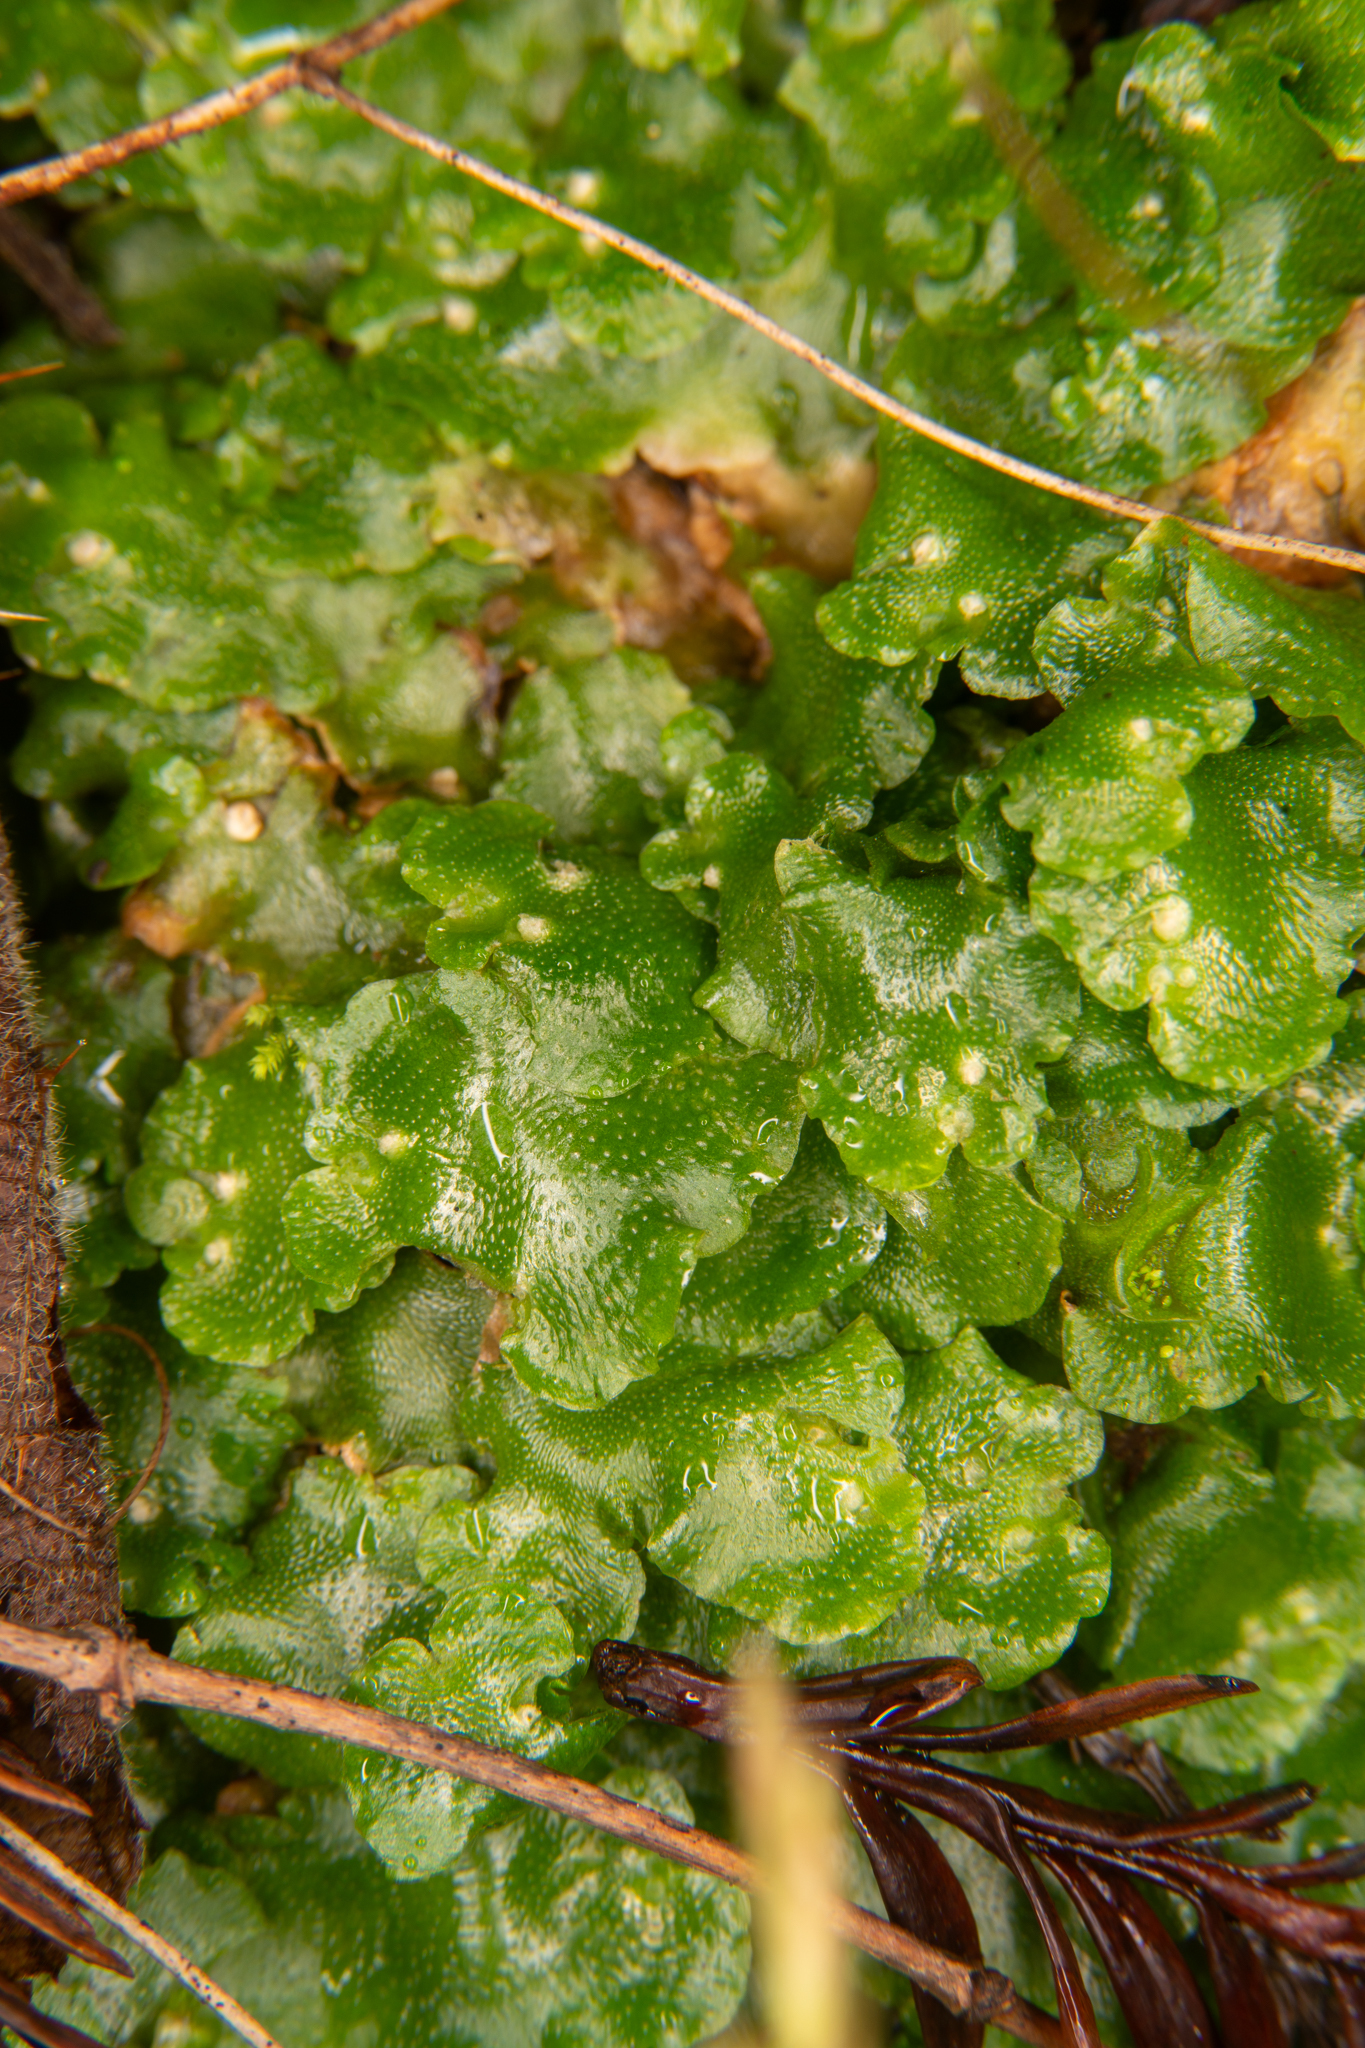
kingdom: Plantae
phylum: Marchantiophyta
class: Marchantiopsida
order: Lunulariales
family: Lunulariaceae
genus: Lunularia
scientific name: Lunularia cruciata
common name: Crescent-cup liverwort
